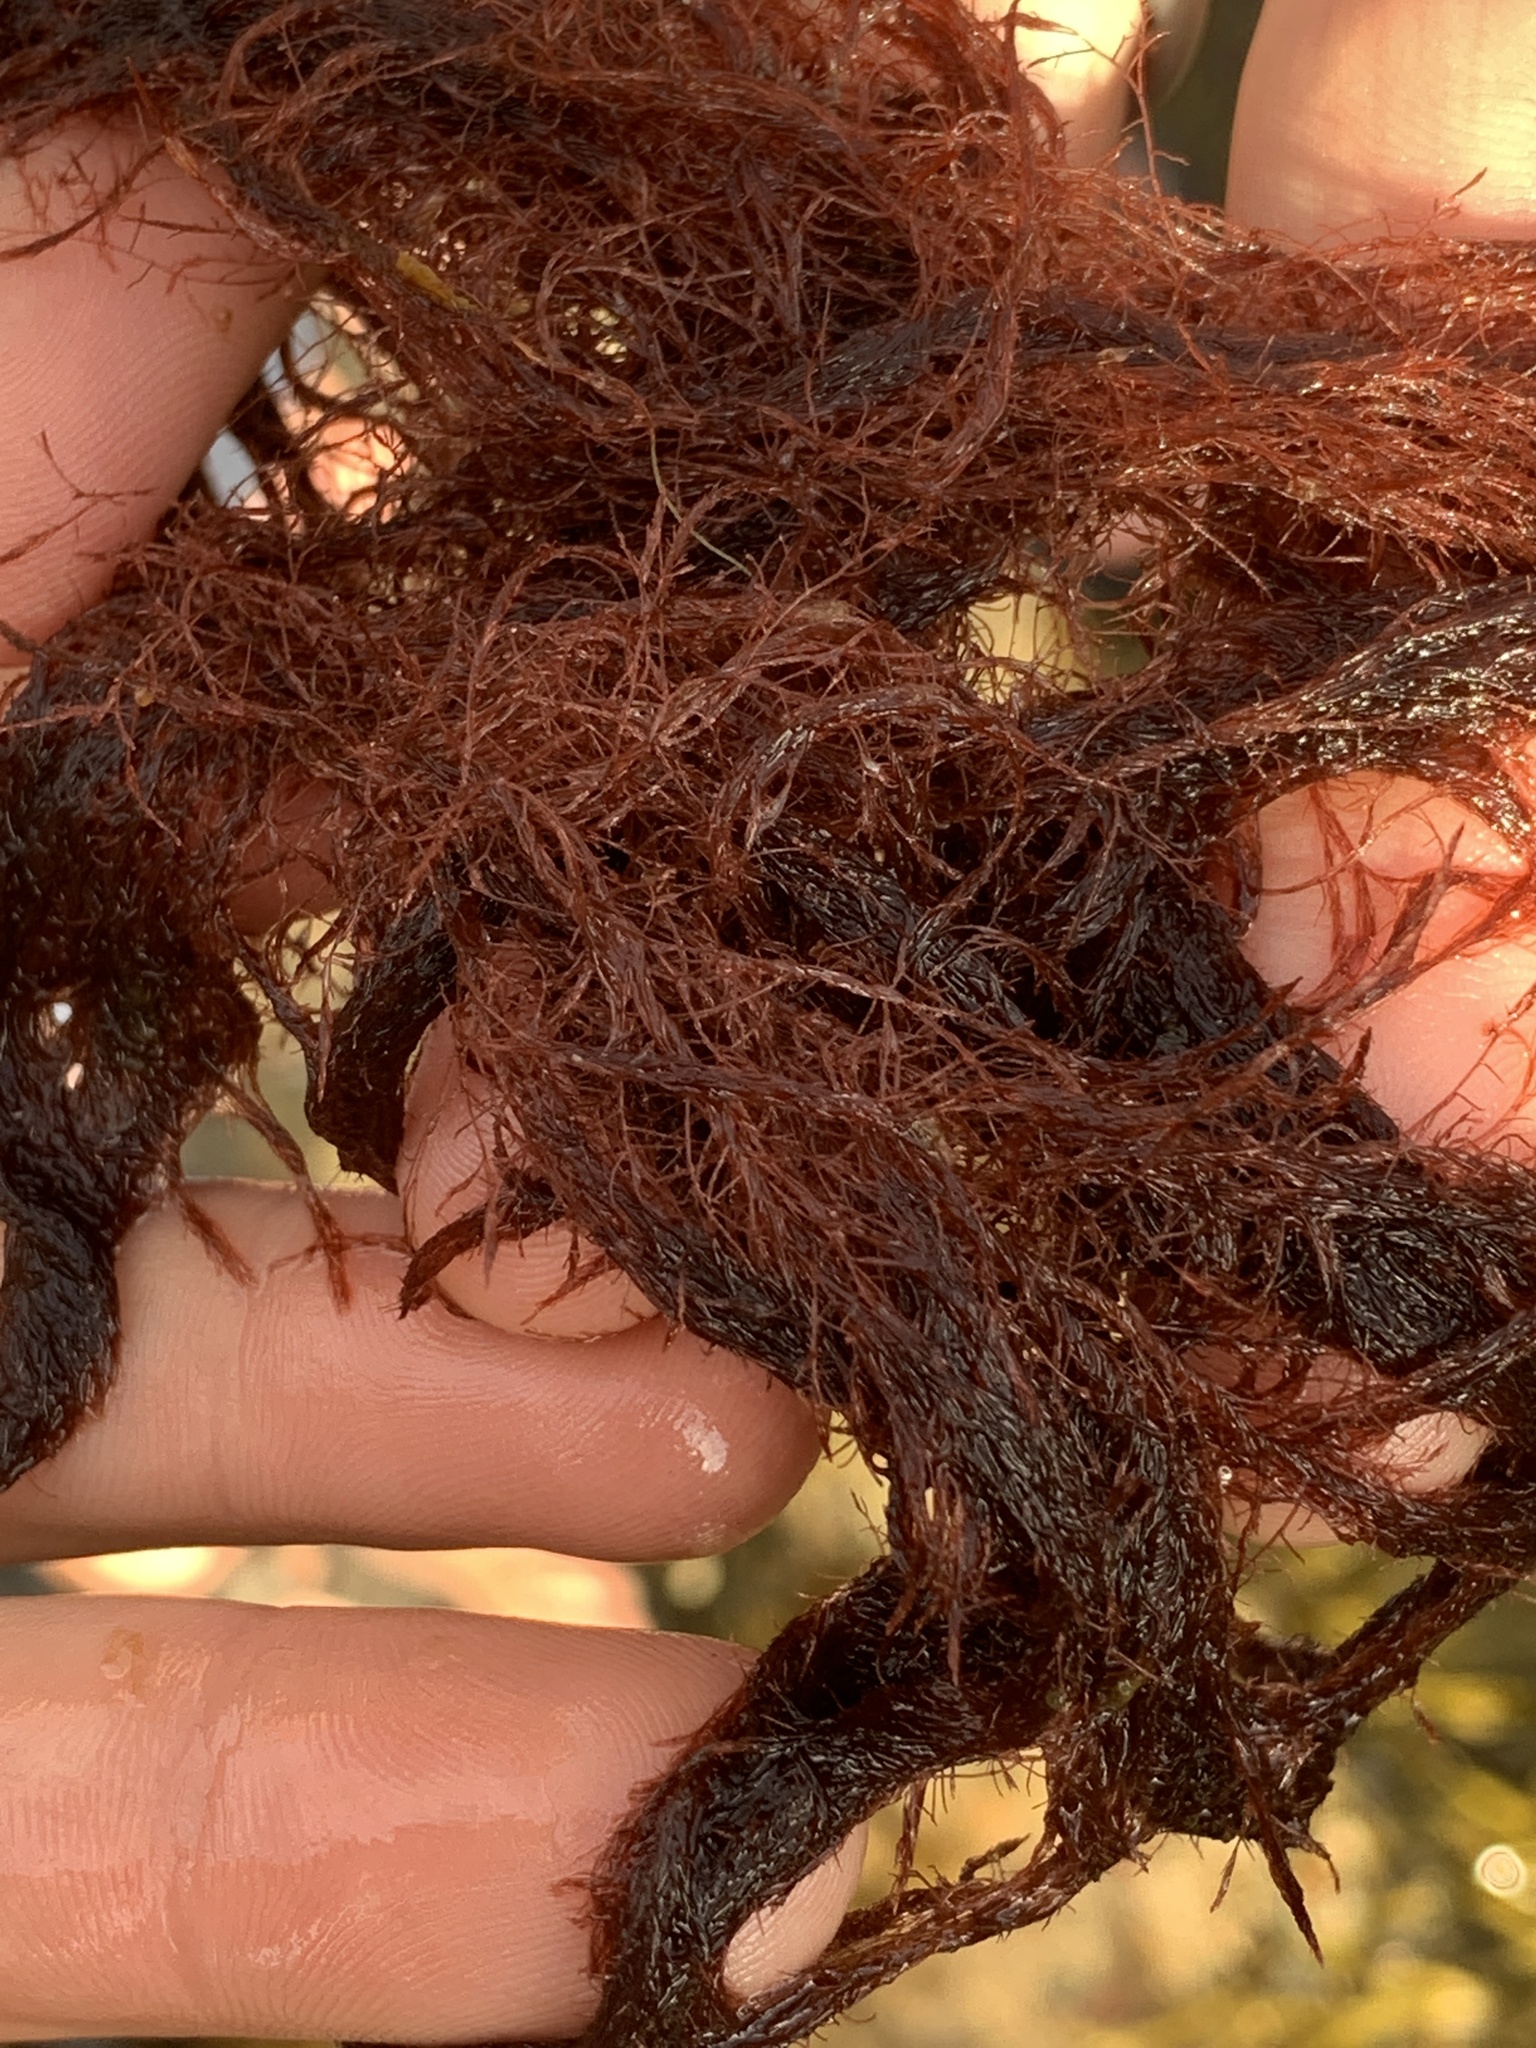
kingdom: Plantae
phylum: Rhodophyta
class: Florideophyceae
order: Ceramiales
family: Rhodomelaceae
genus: Polysiphonia
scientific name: Polysiphonia stricta
